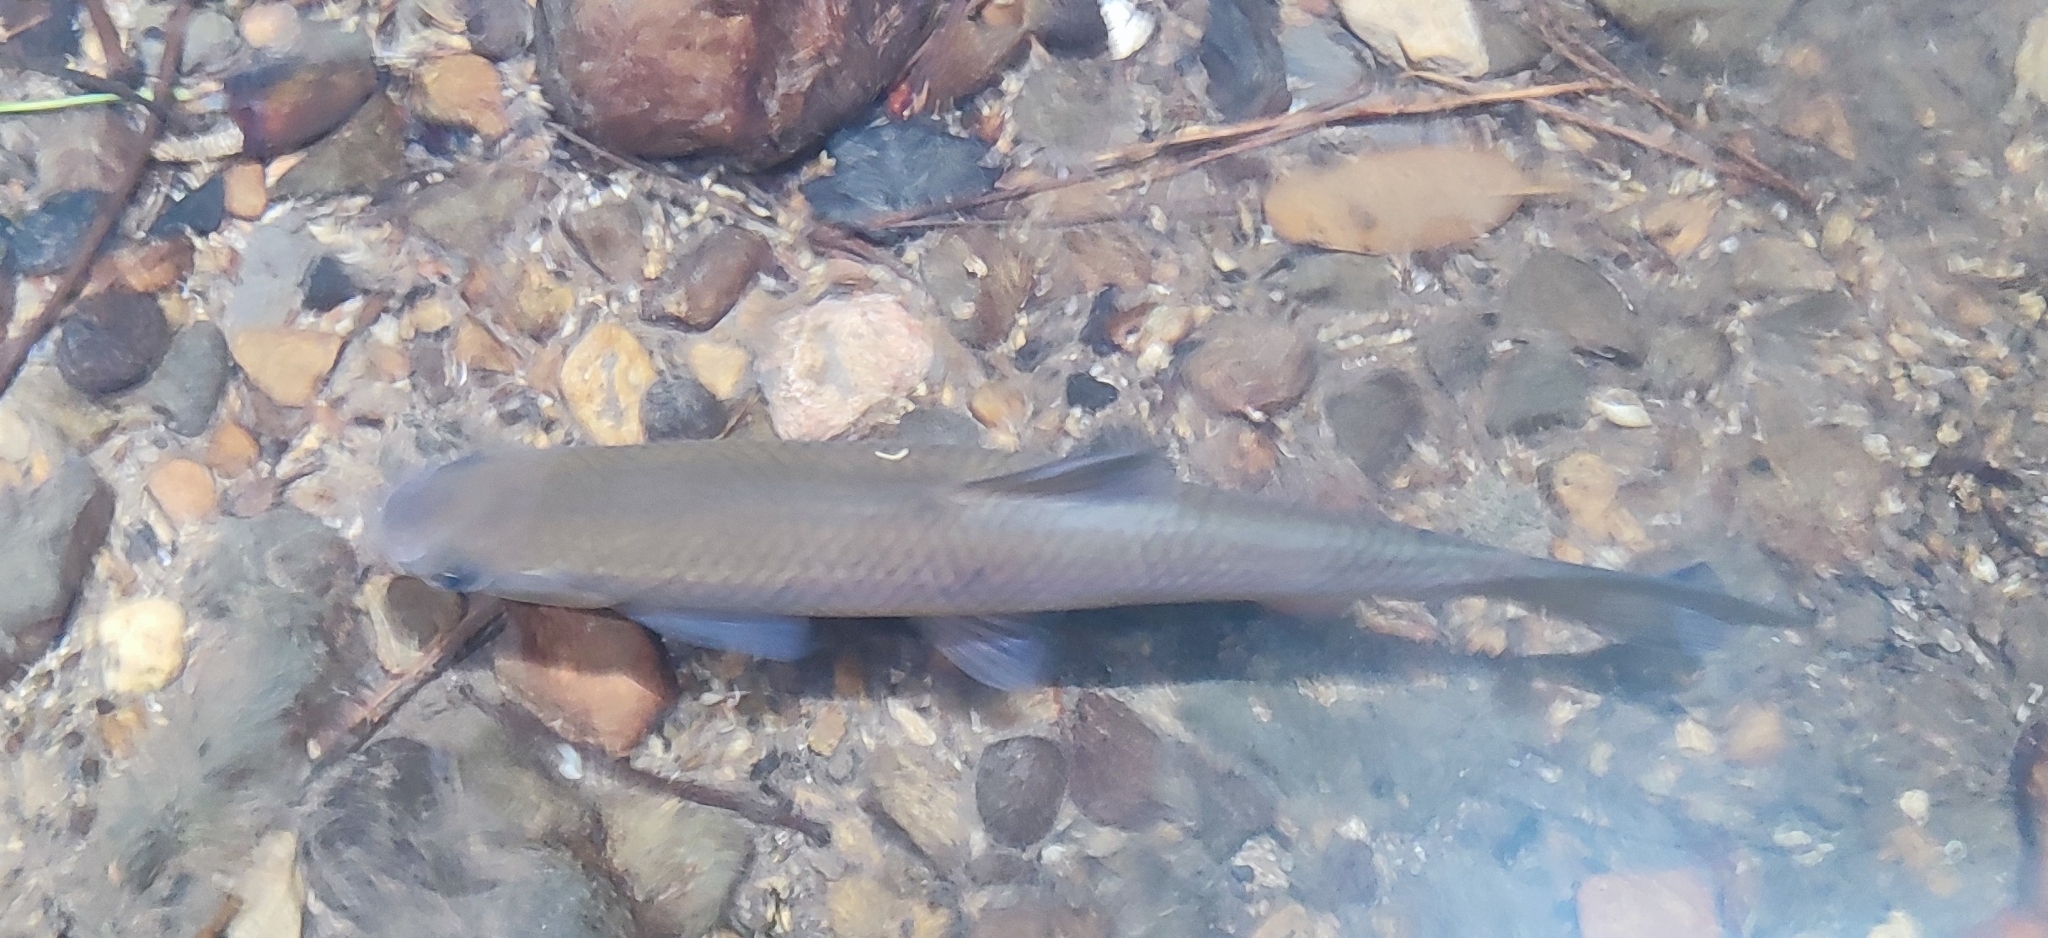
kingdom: Animalia
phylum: Chordata
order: Cypriniformes
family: Cyprinidae
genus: Squalius
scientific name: Squalius cephalus
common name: Chub
